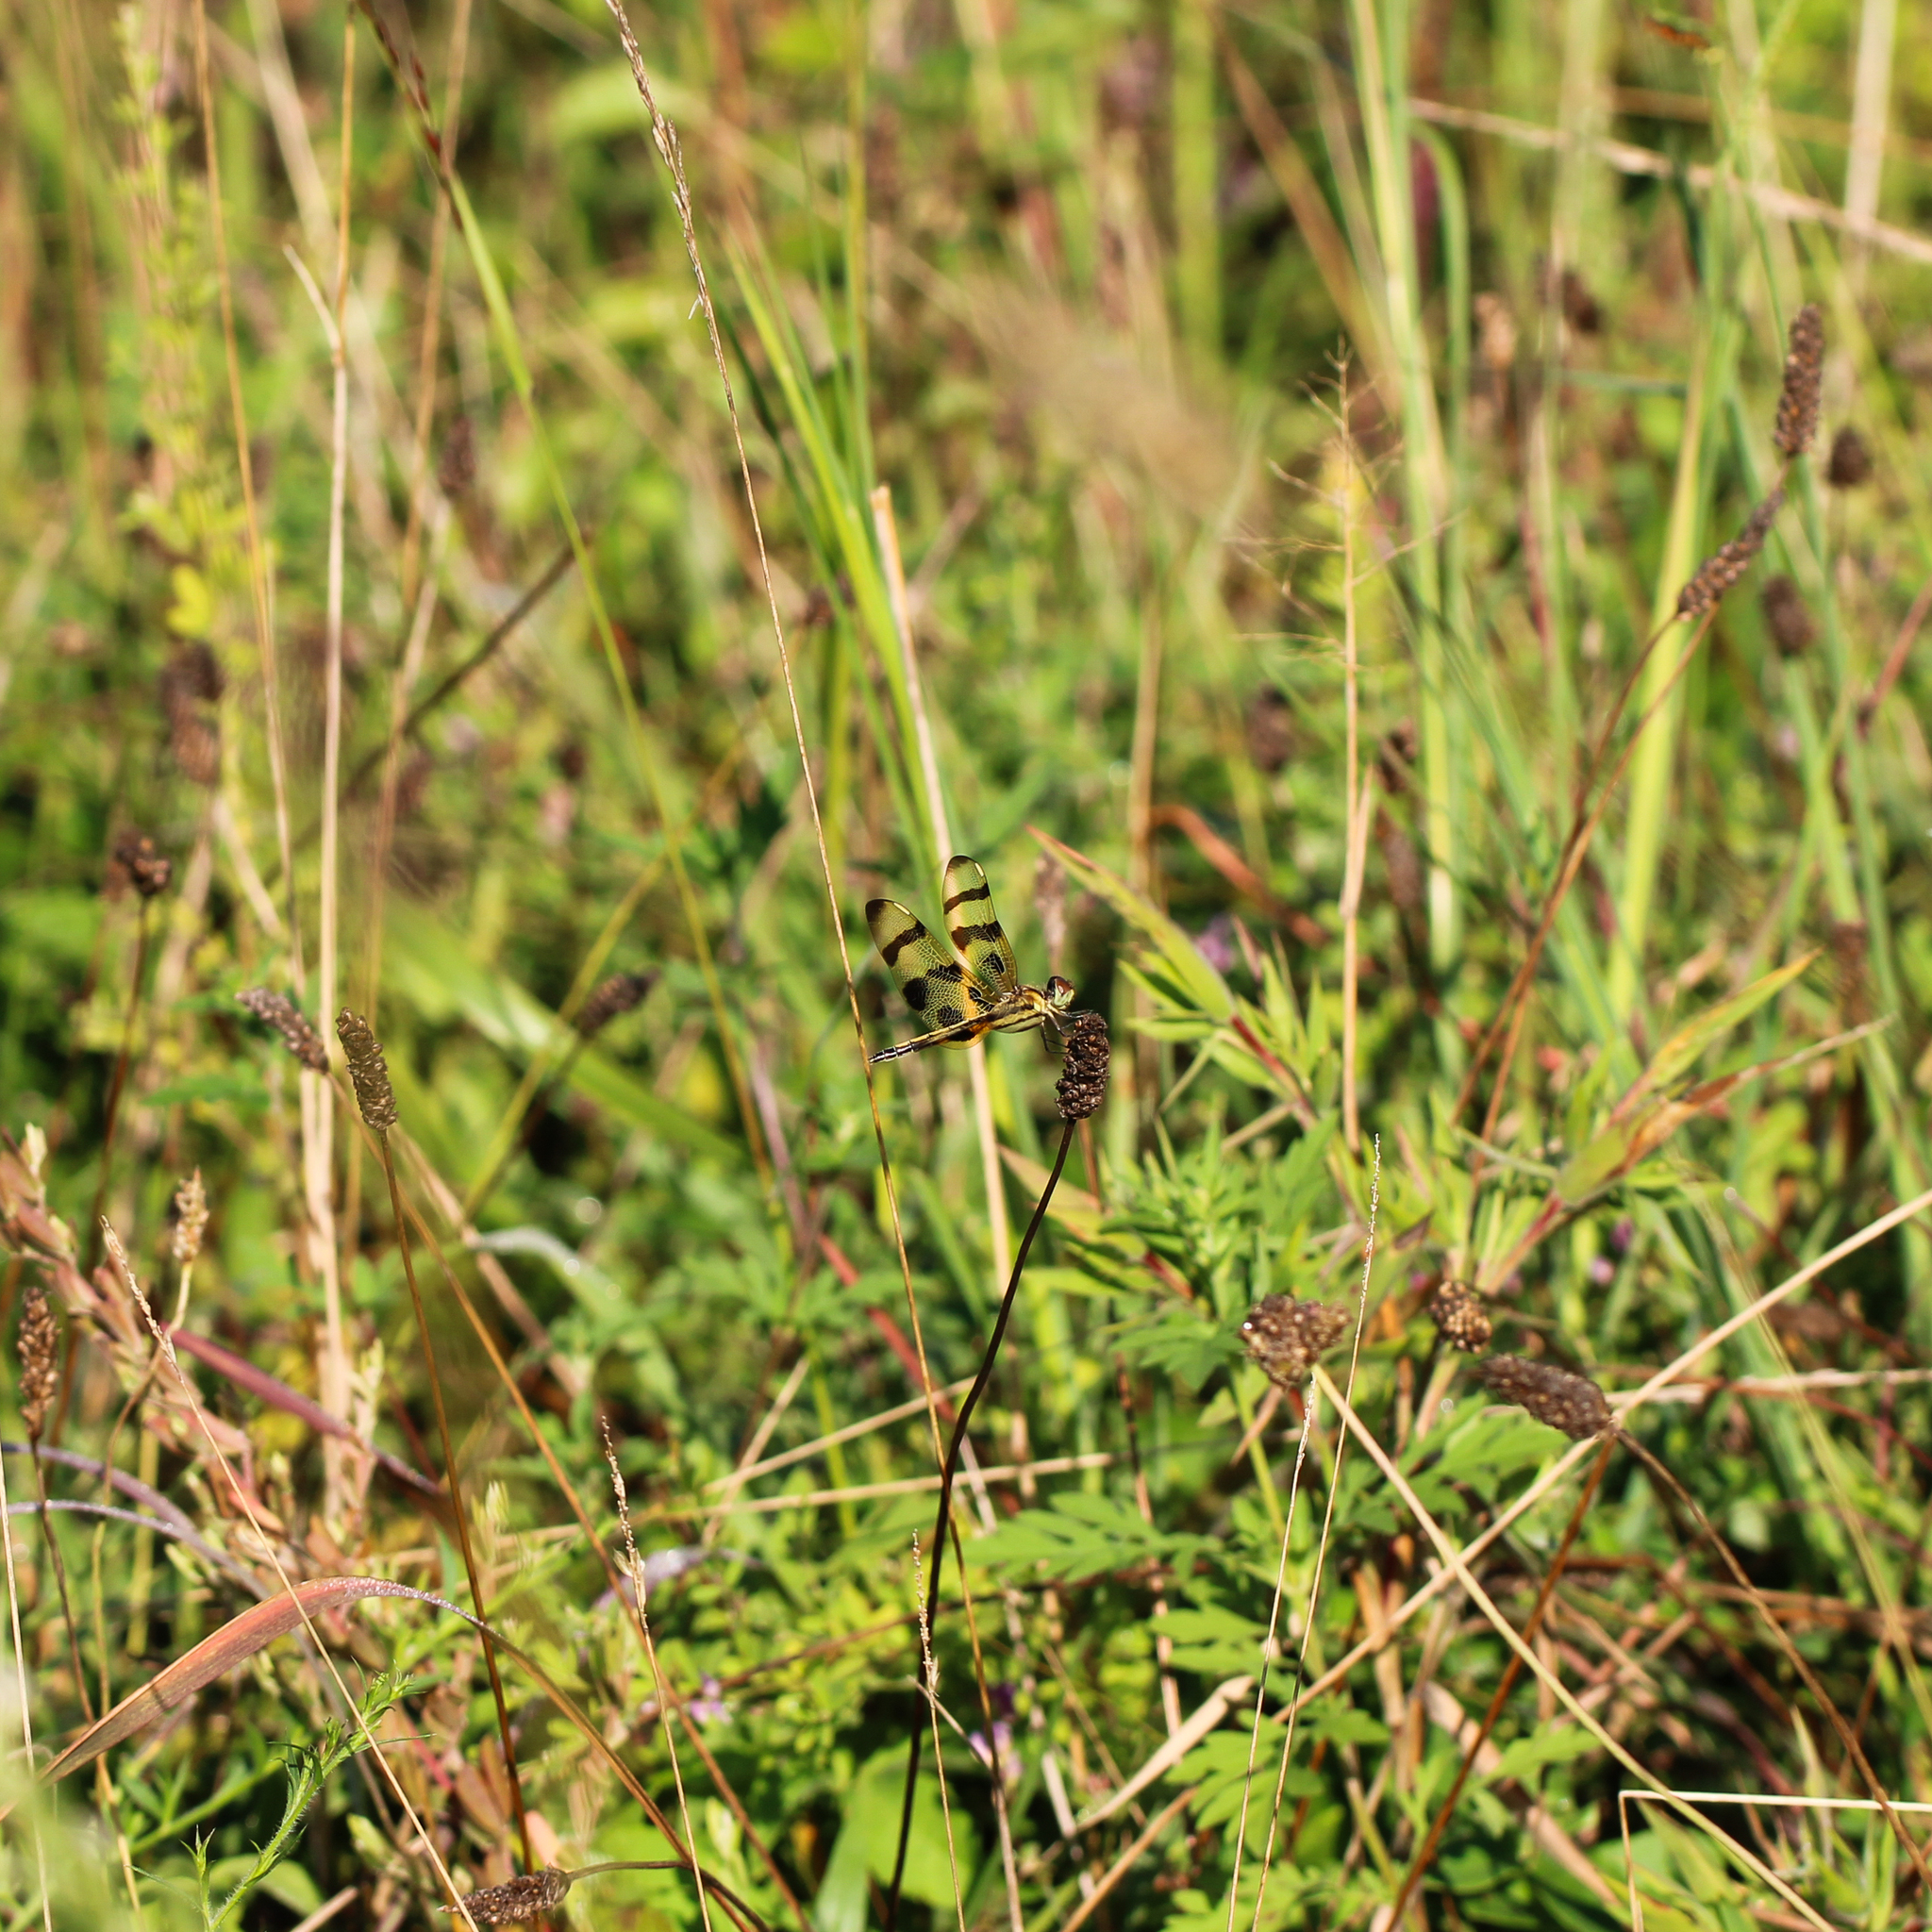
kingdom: Animalia
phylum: Arthropoda
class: Insecta
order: Odonata
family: Libellulidae
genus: Celithemis
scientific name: Celithemis eponina
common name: Halloween pennant
